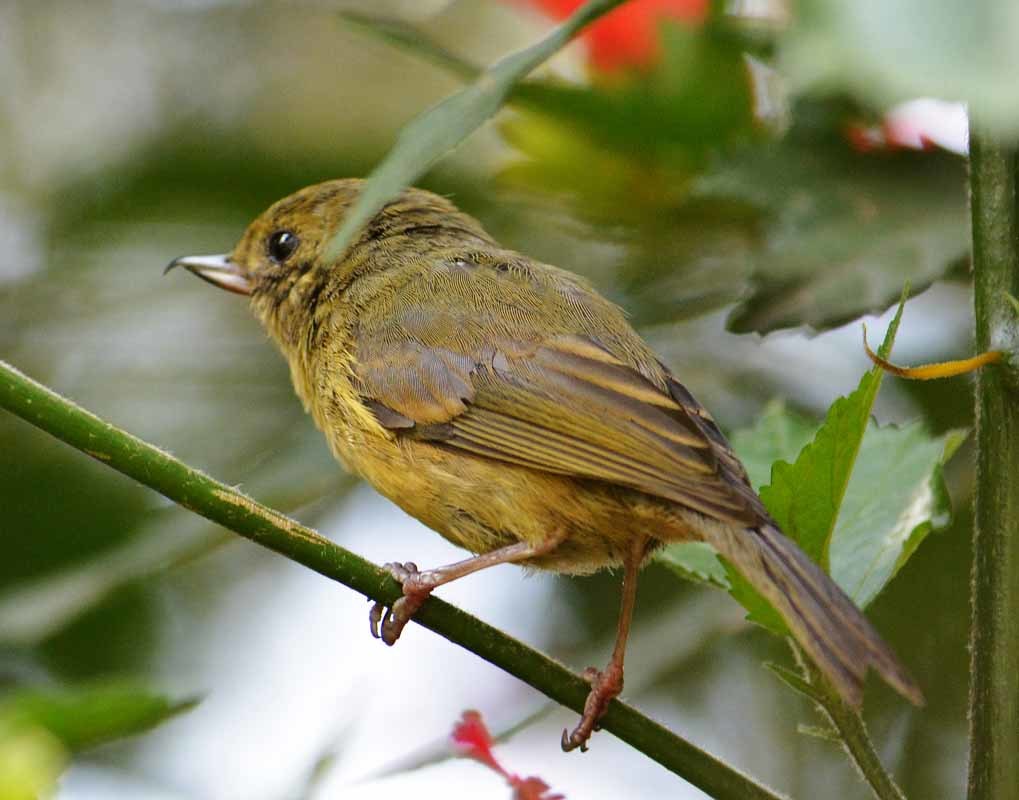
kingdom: Animalia
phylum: Chordata
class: Aves
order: Passeriformes
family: Thraupidae
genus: Diglossa
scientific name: Diglossa baritula
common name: Cinnamon-bellied flowerpiercer
